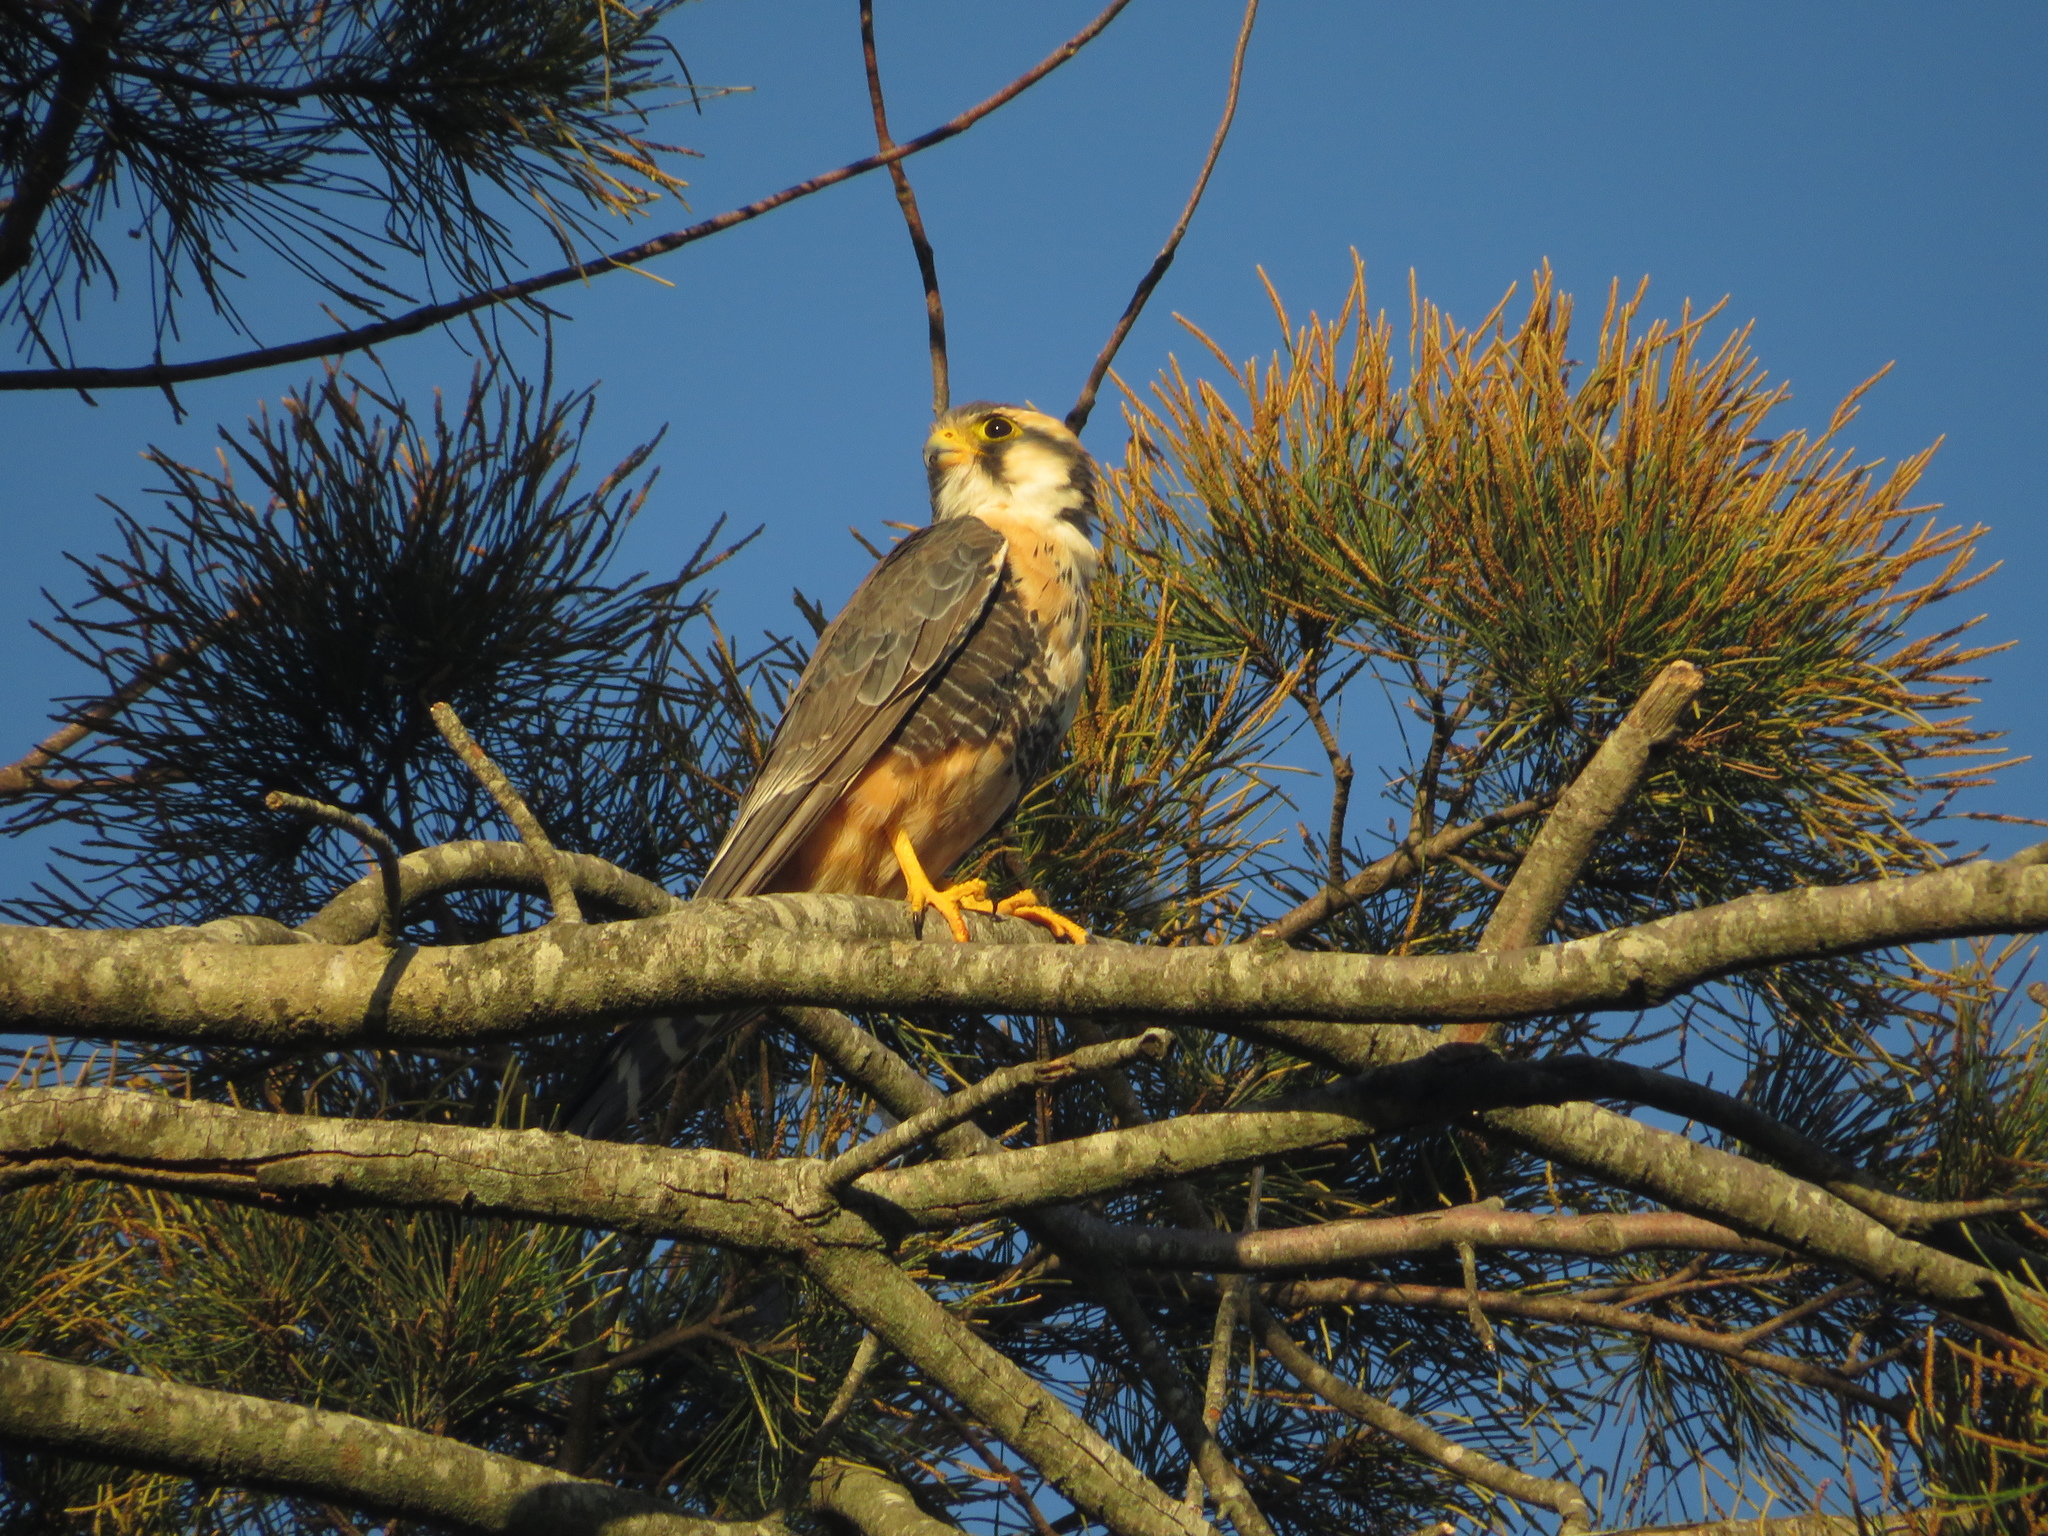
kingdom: Animalia
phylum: Chordata
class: Aves
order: Falconiformes
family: Falconidae
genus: Falco
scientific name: Falco femoralis
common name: Aplomado falcon
